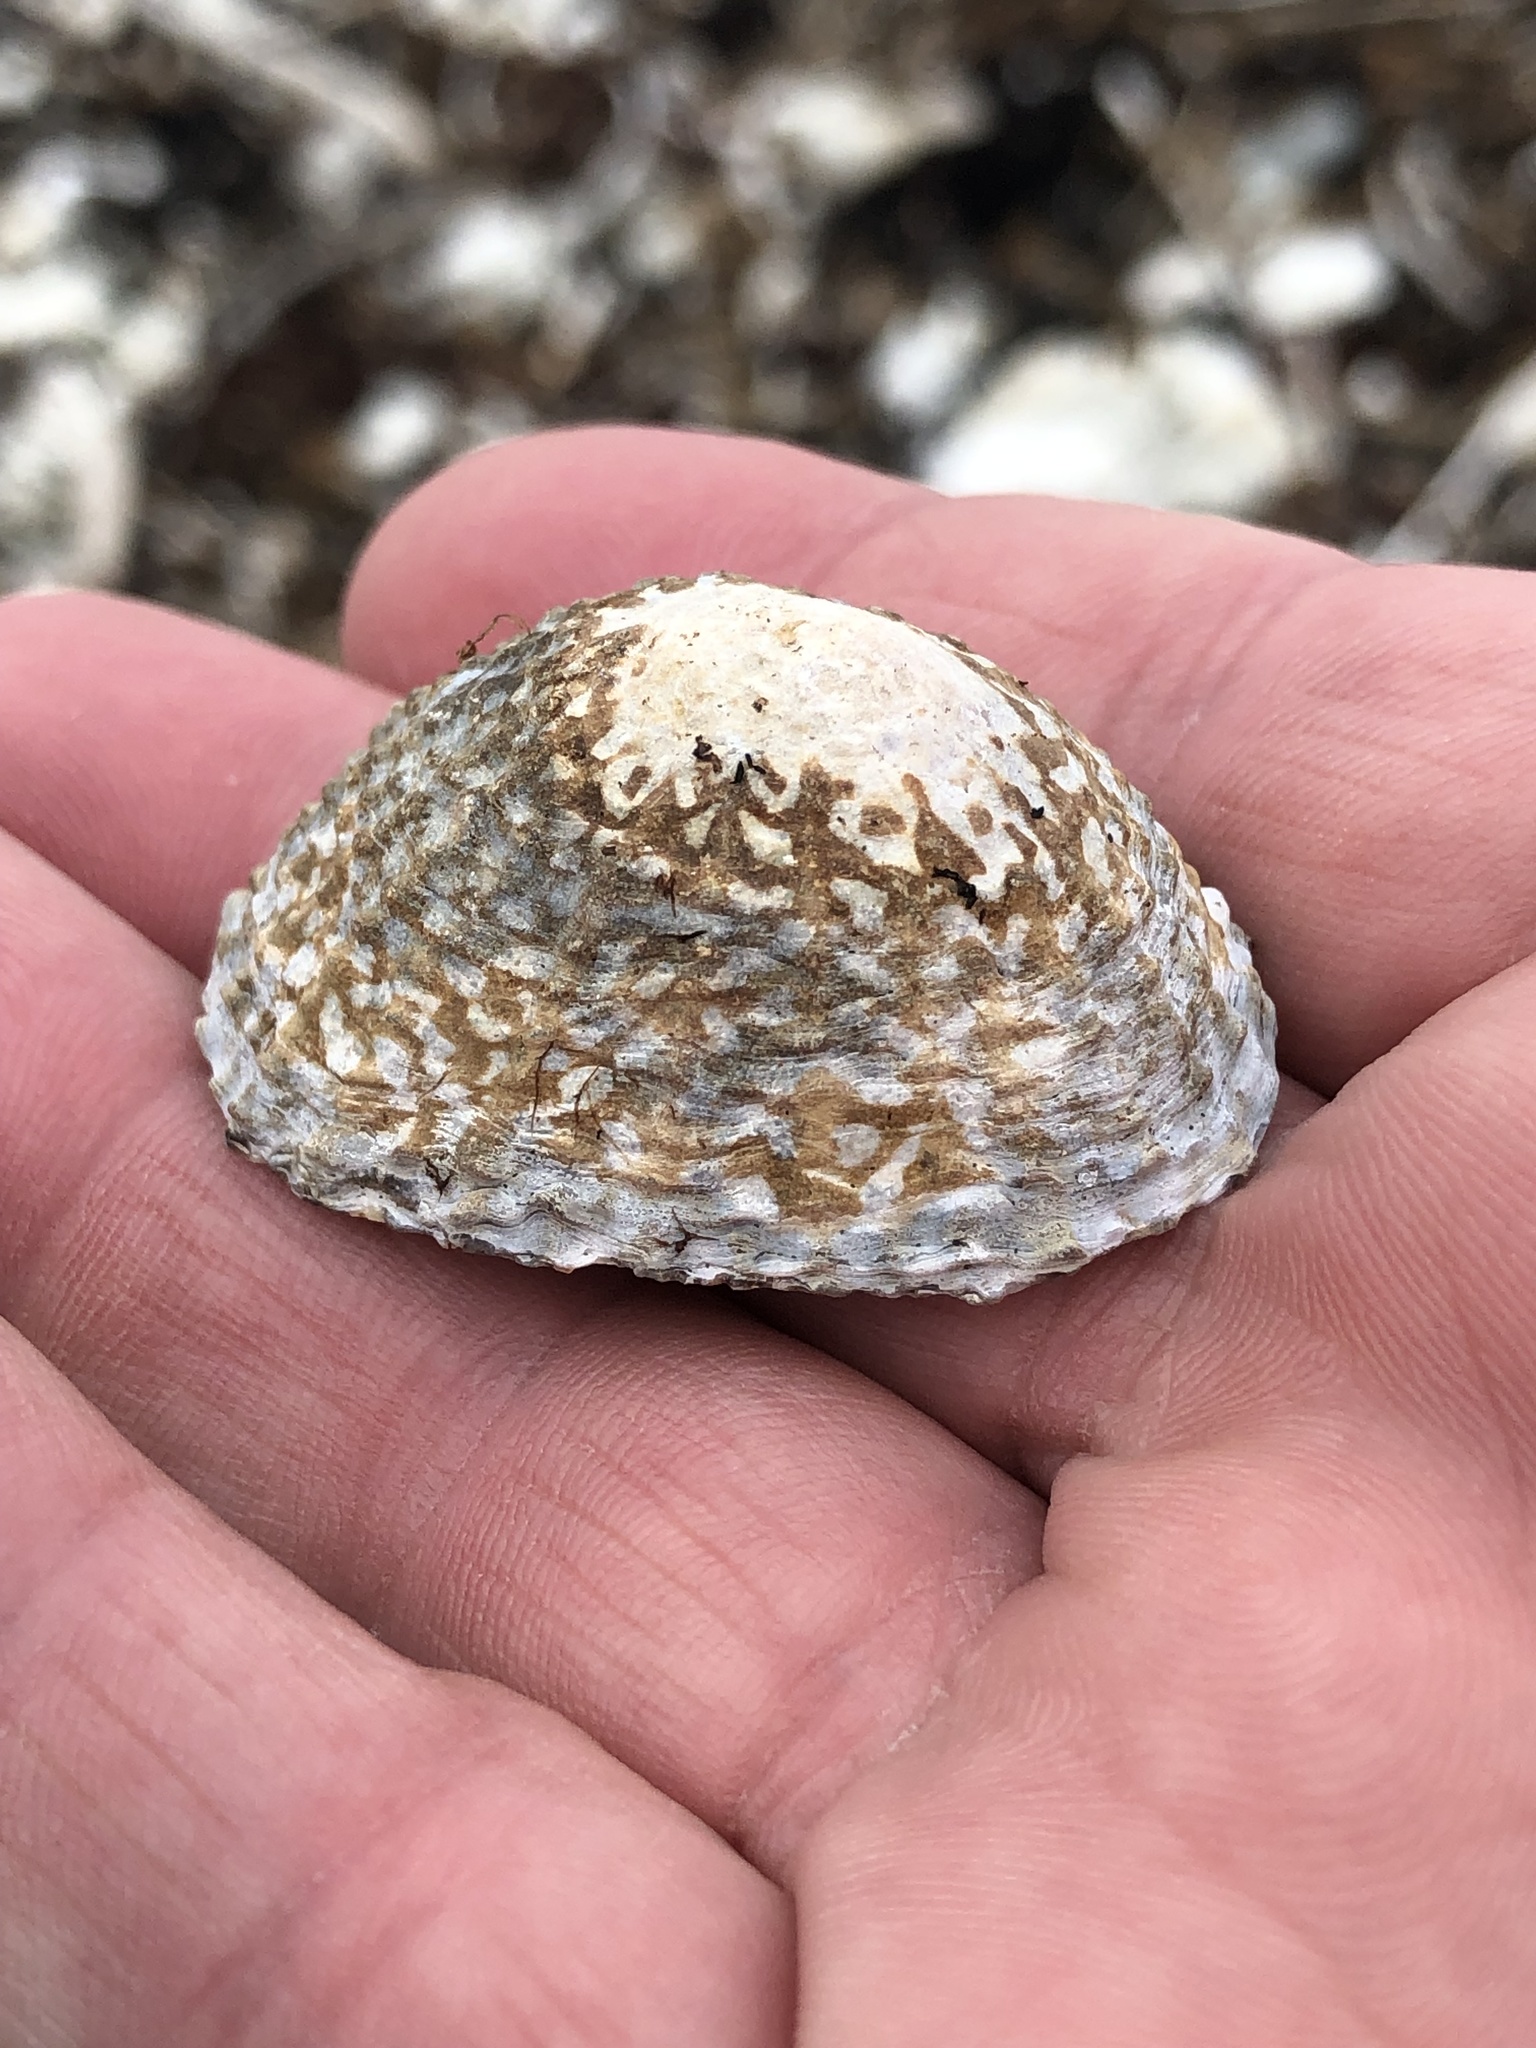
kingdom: Animalia
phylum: Mollusca
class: Gastropoda
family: Nacellidae
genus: Cellana
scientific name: Cellana denticulata
